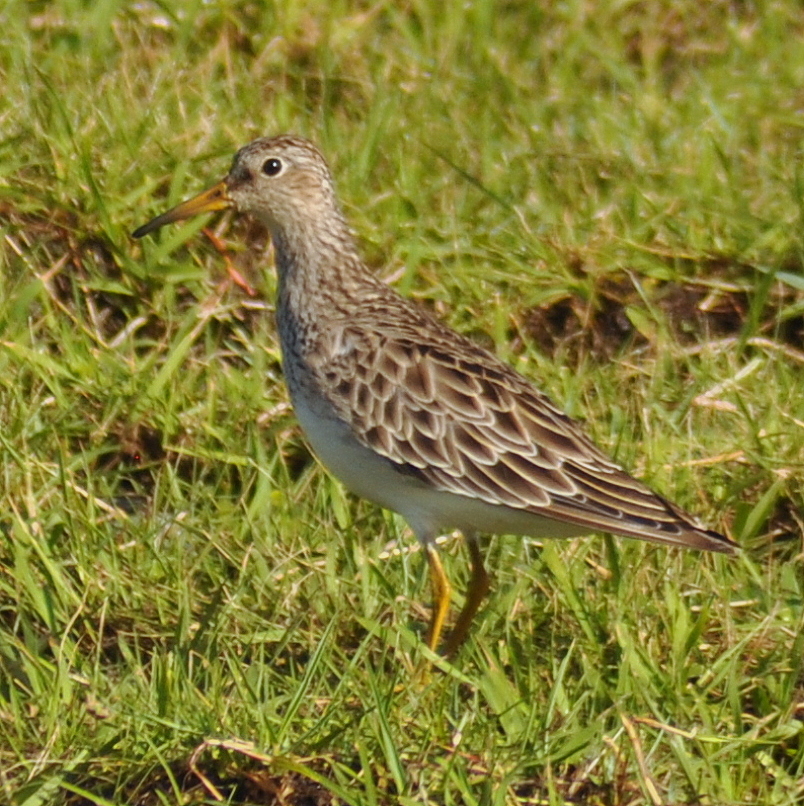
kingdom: Animalia
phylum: Chordata
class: Aves
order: Charadriiformes
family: Scolopacidae
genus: Calidris
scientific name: Calidris melanotos
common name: Pectoral sandpiper
